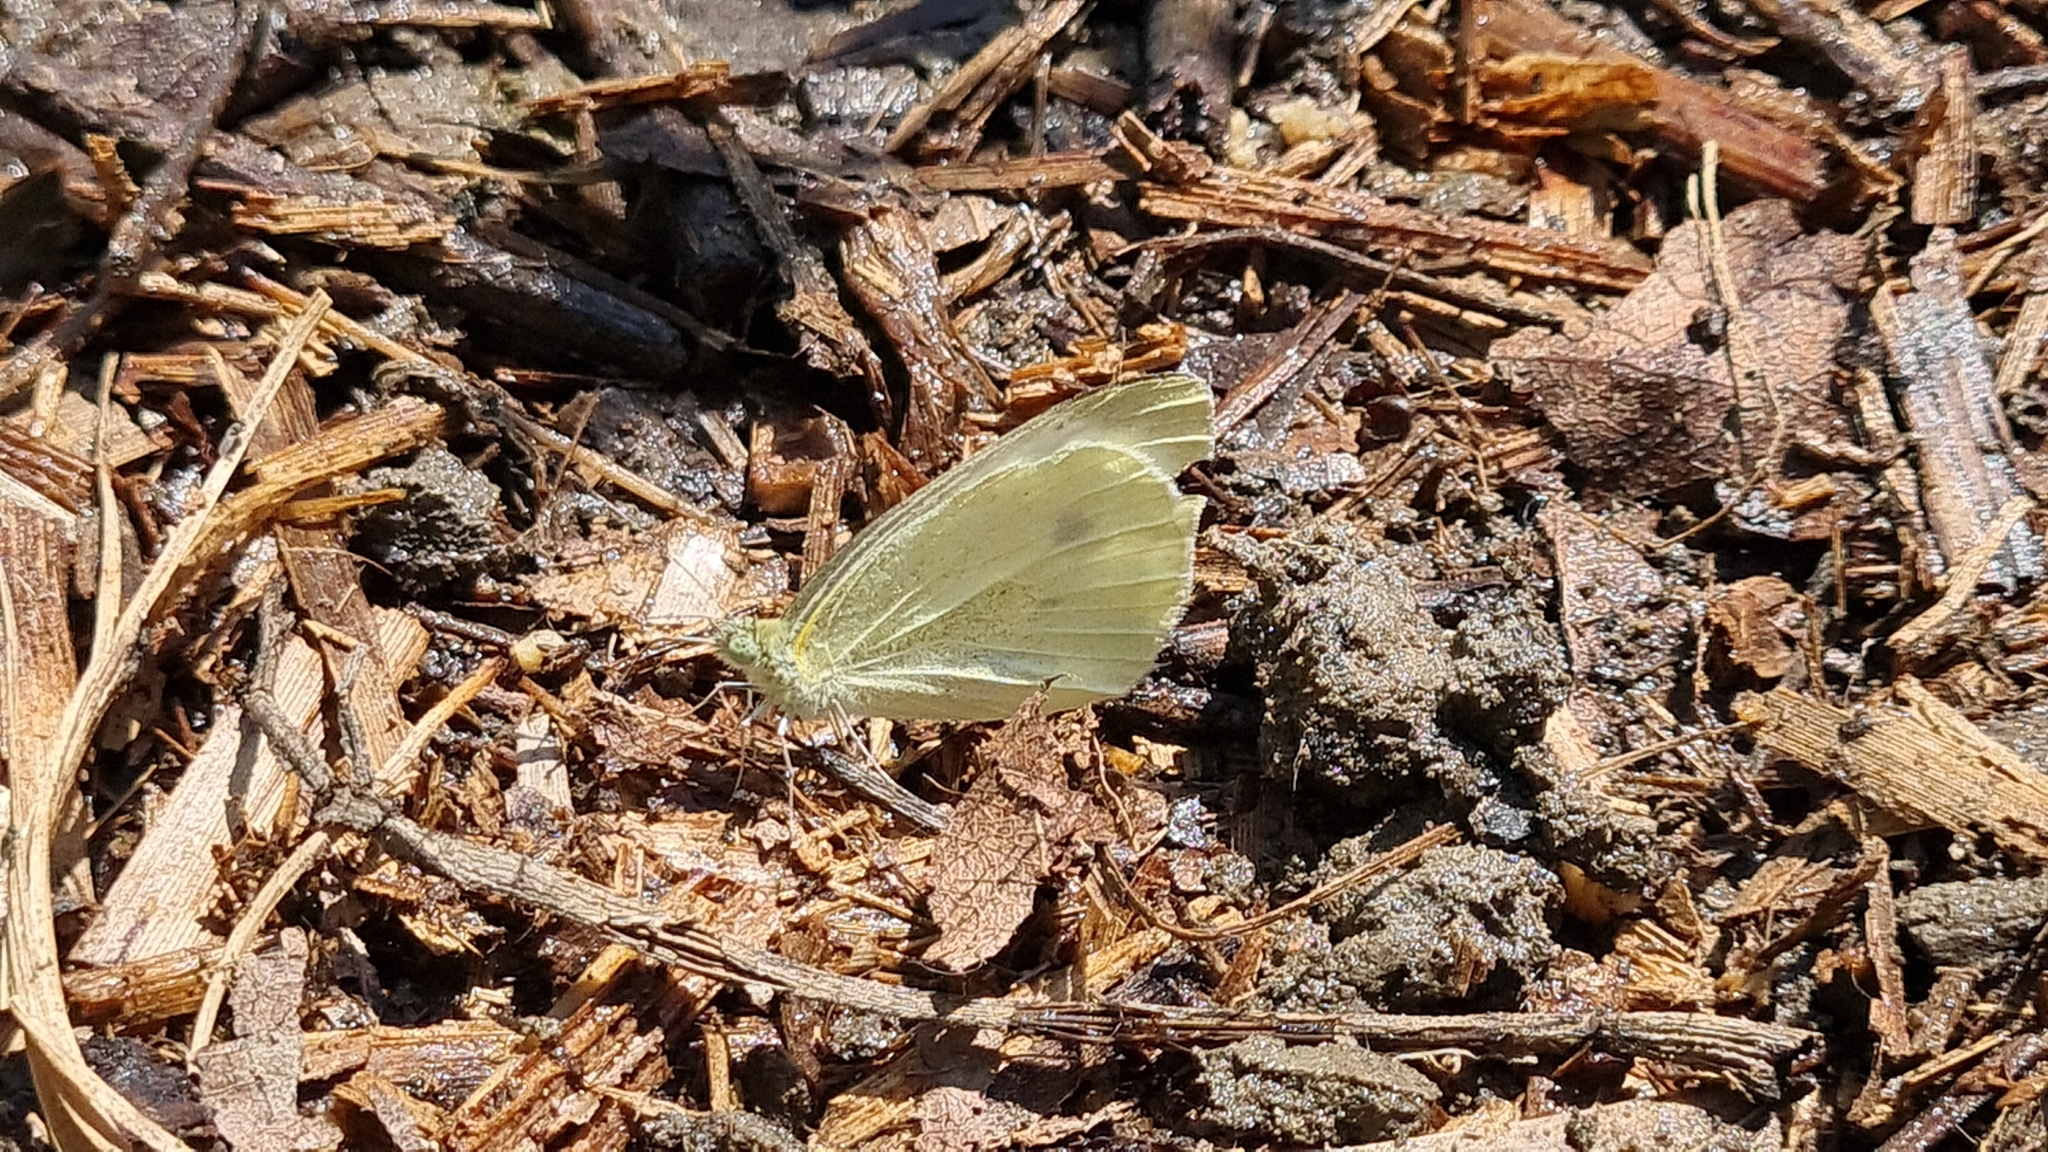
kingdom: Animalia
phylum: Arthropoda
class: Insecta
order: Lepidoptera
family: Pieridae
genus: Pieris
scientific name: Pieris rapae
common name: Small white
